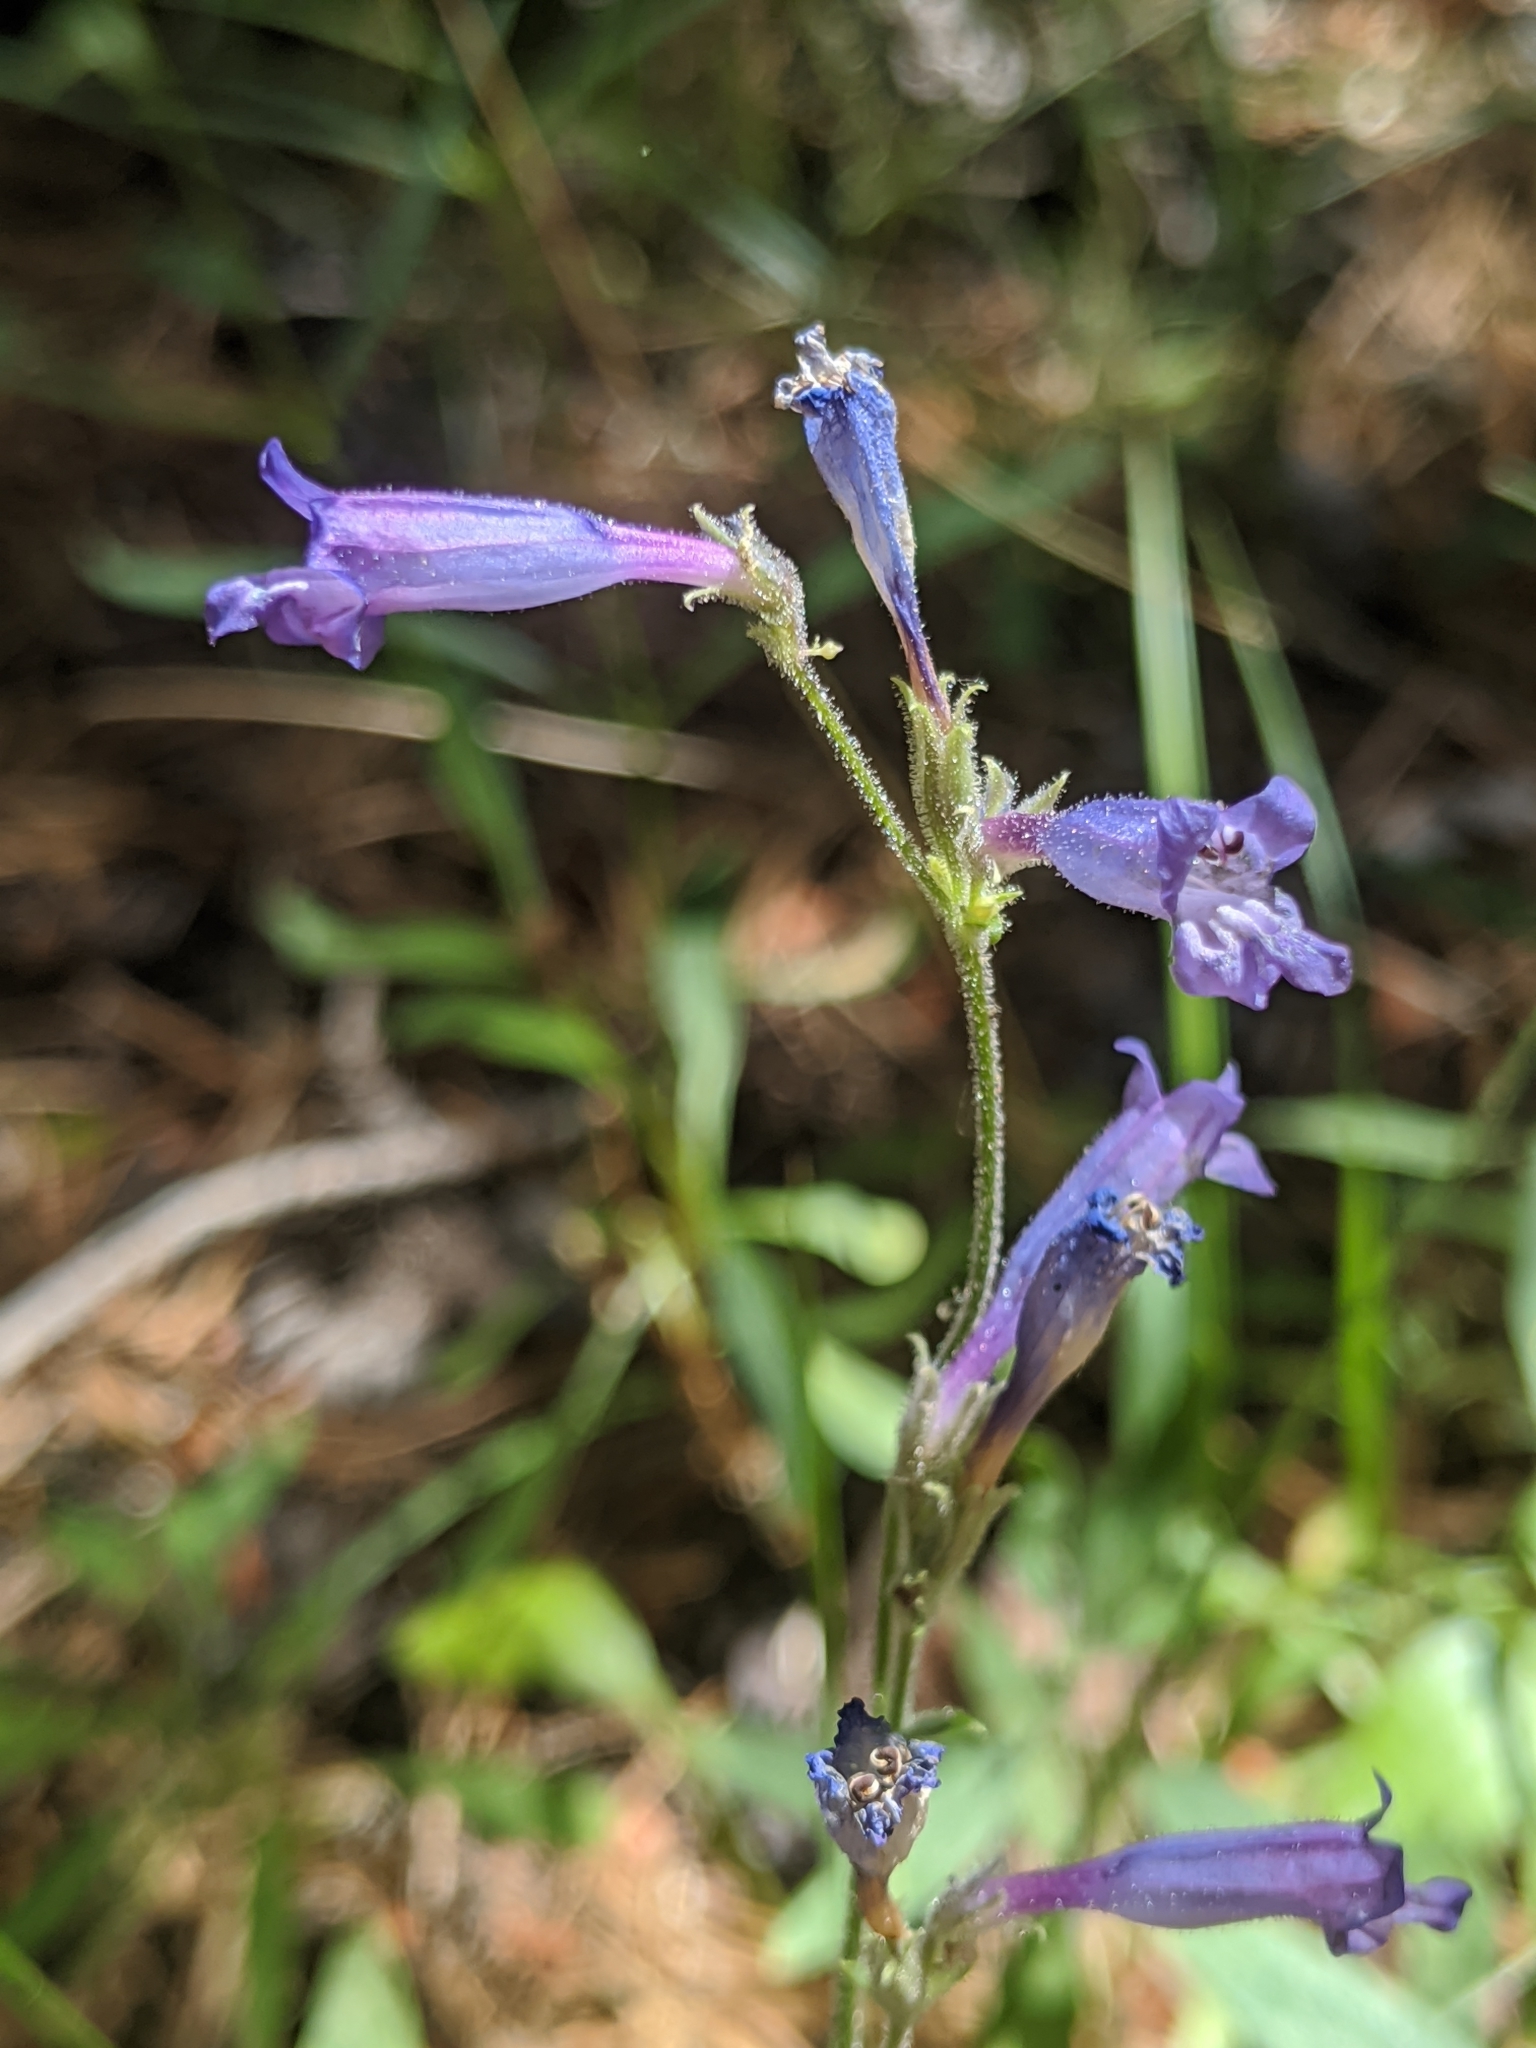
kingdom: Plantae
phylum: Tracheophyta
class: Magnoliopsida
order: Lamiales
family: Plantaginaceae
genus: Penstemon
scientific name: Penstemon gracilentus
